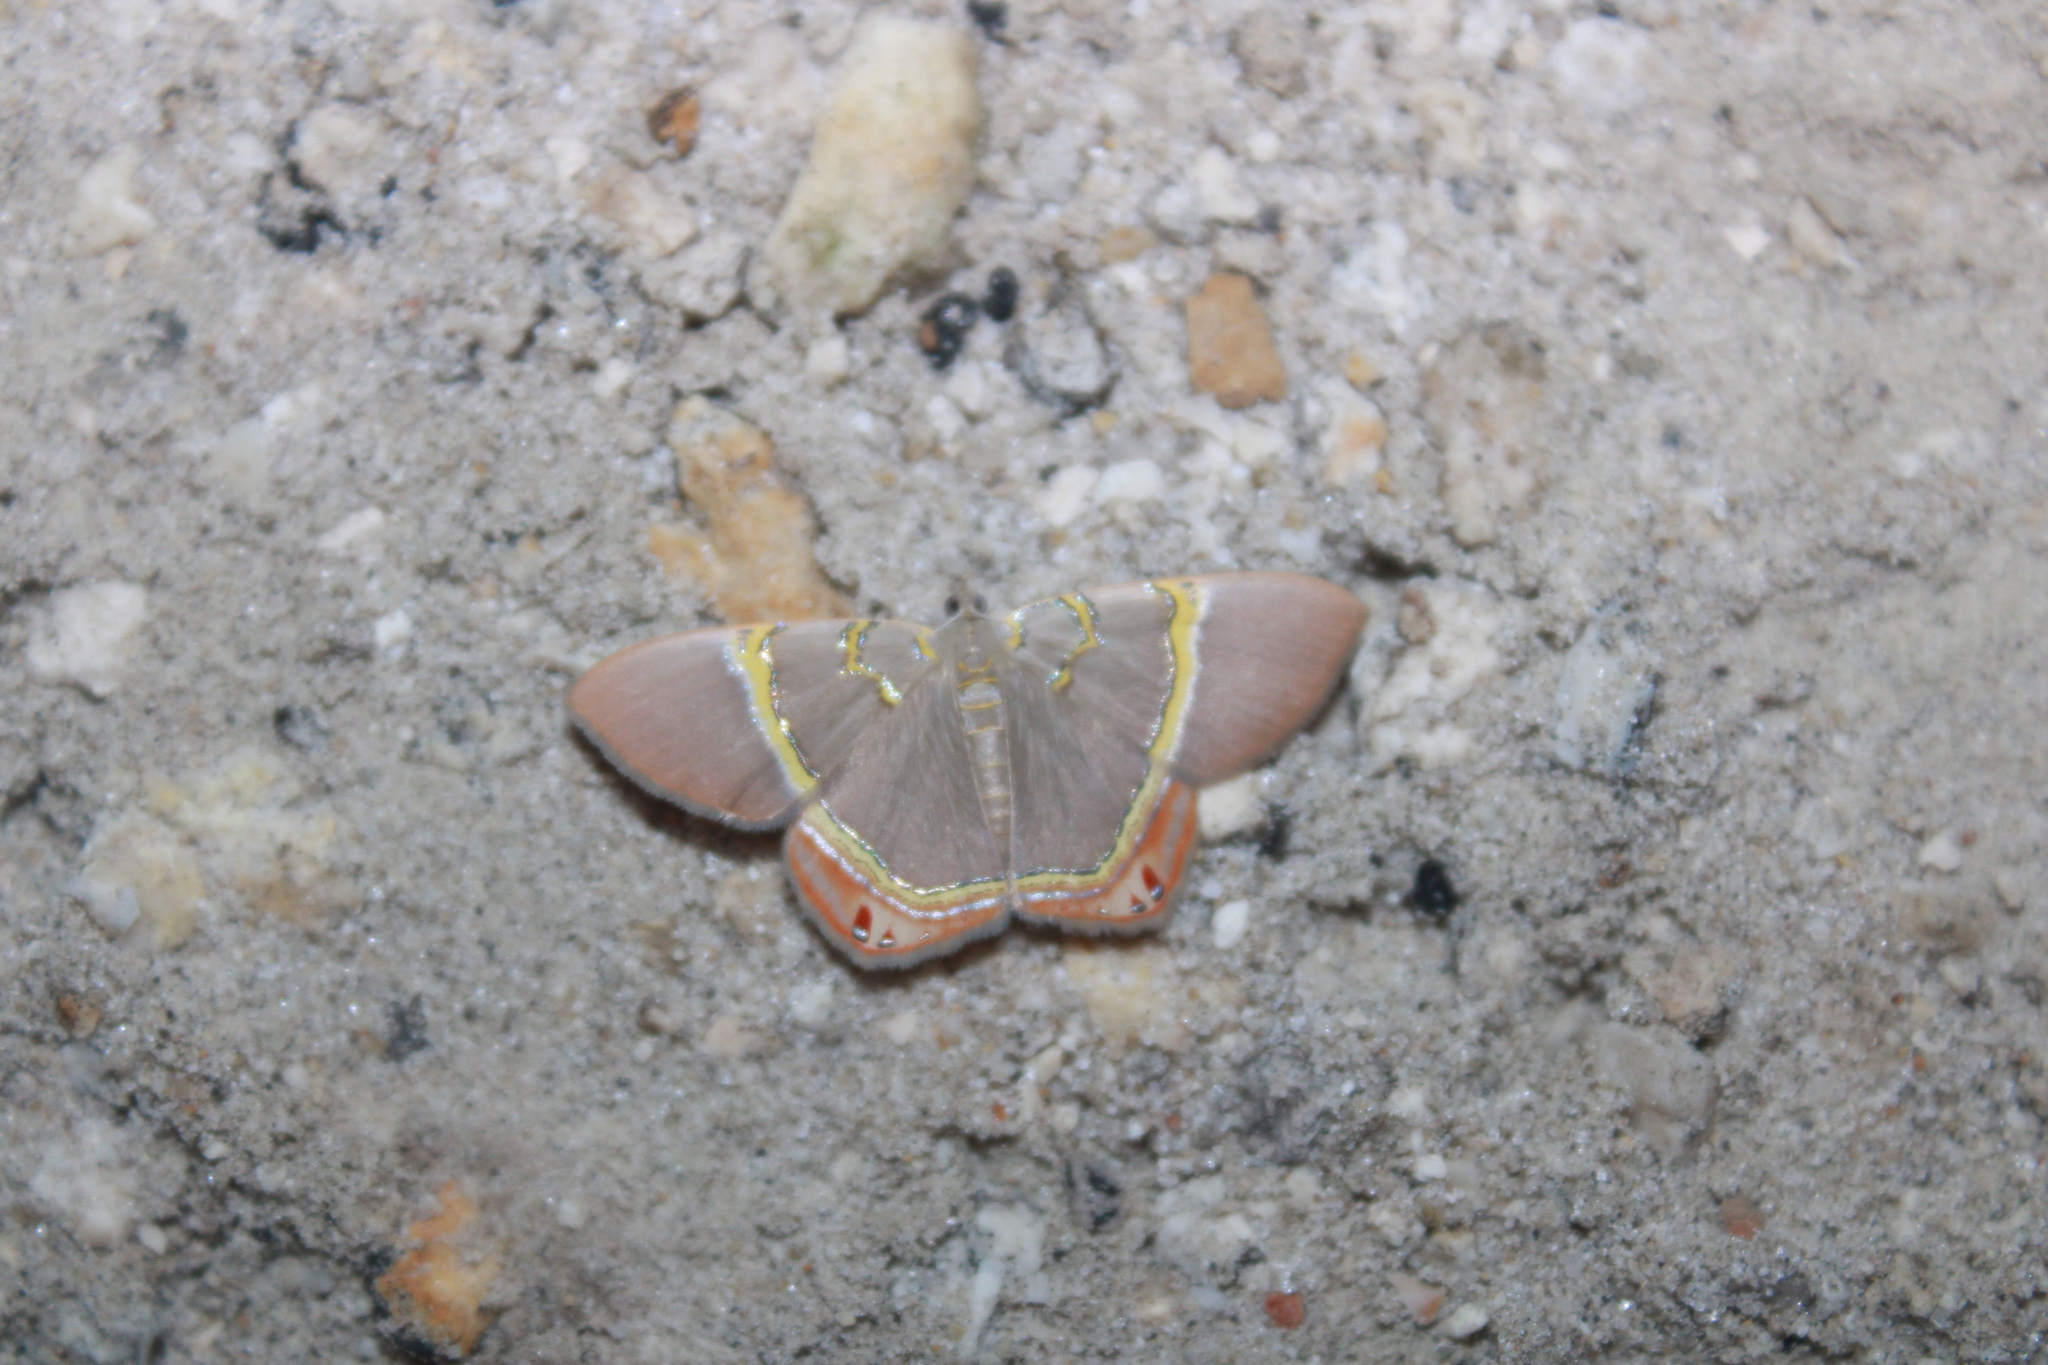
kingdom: Animalia
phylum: Arthropoda
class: Insecta
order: Lepidoptera
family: Geometridae
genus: Phrygionis
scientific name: Phrygionis paradoxata
